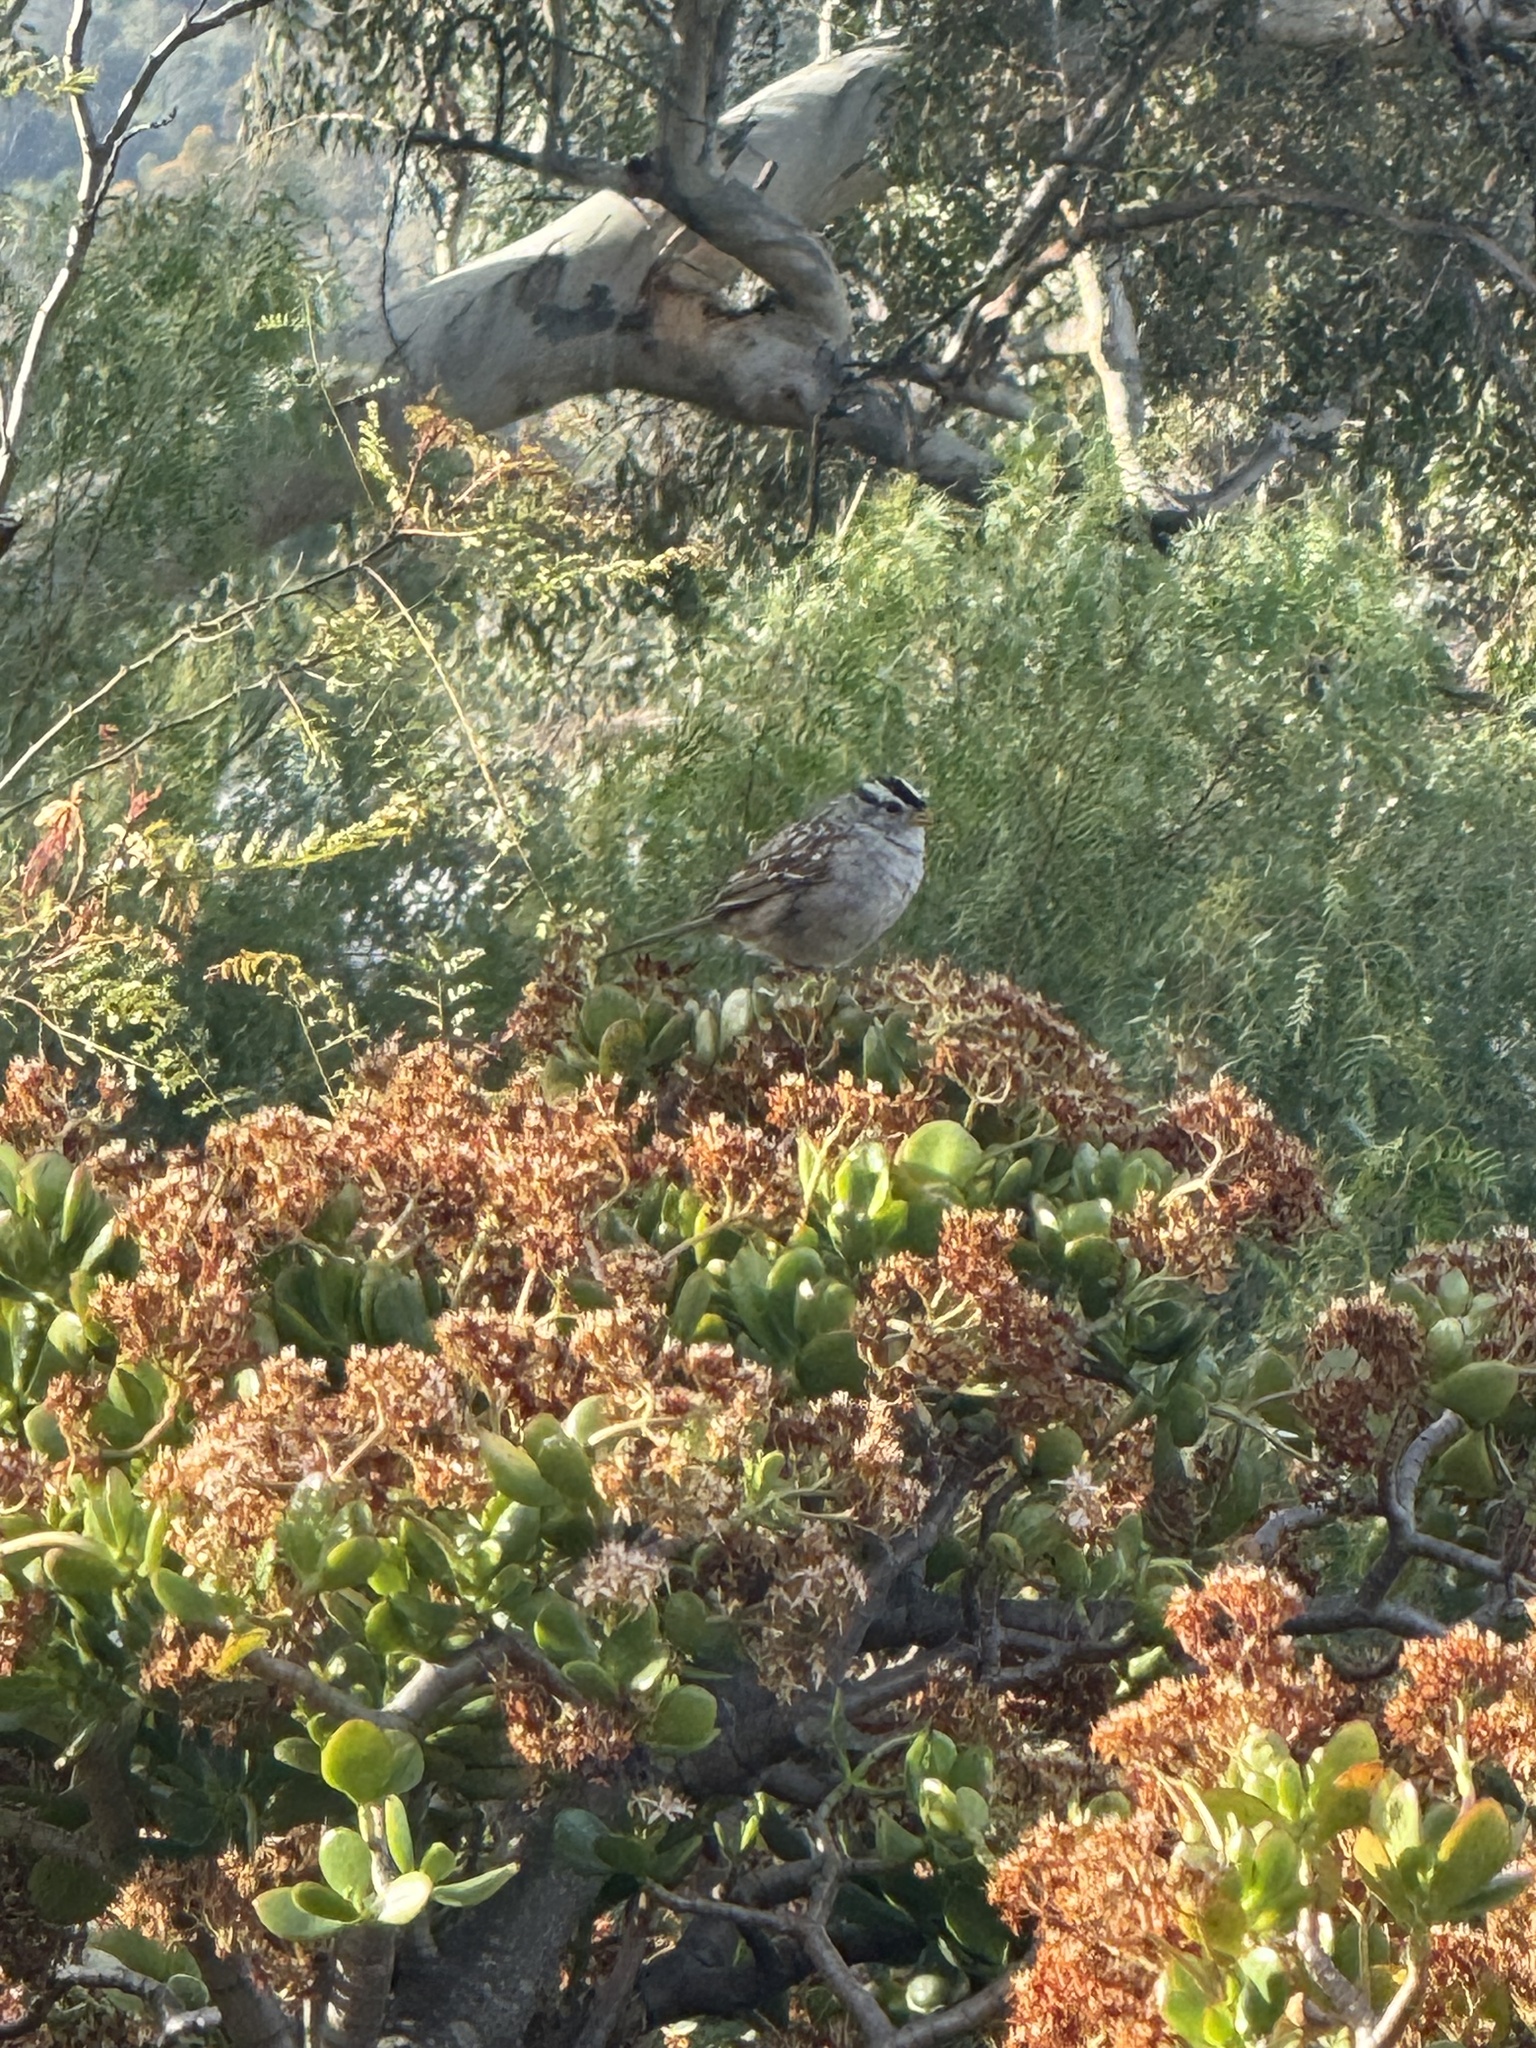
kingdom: Animalia
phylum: Chordata
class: Aves
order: Passeriformes
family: Passerellidae
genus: Zonotrichia
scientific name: Zonotrichia leucophrys
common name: White-crowned sparrow
